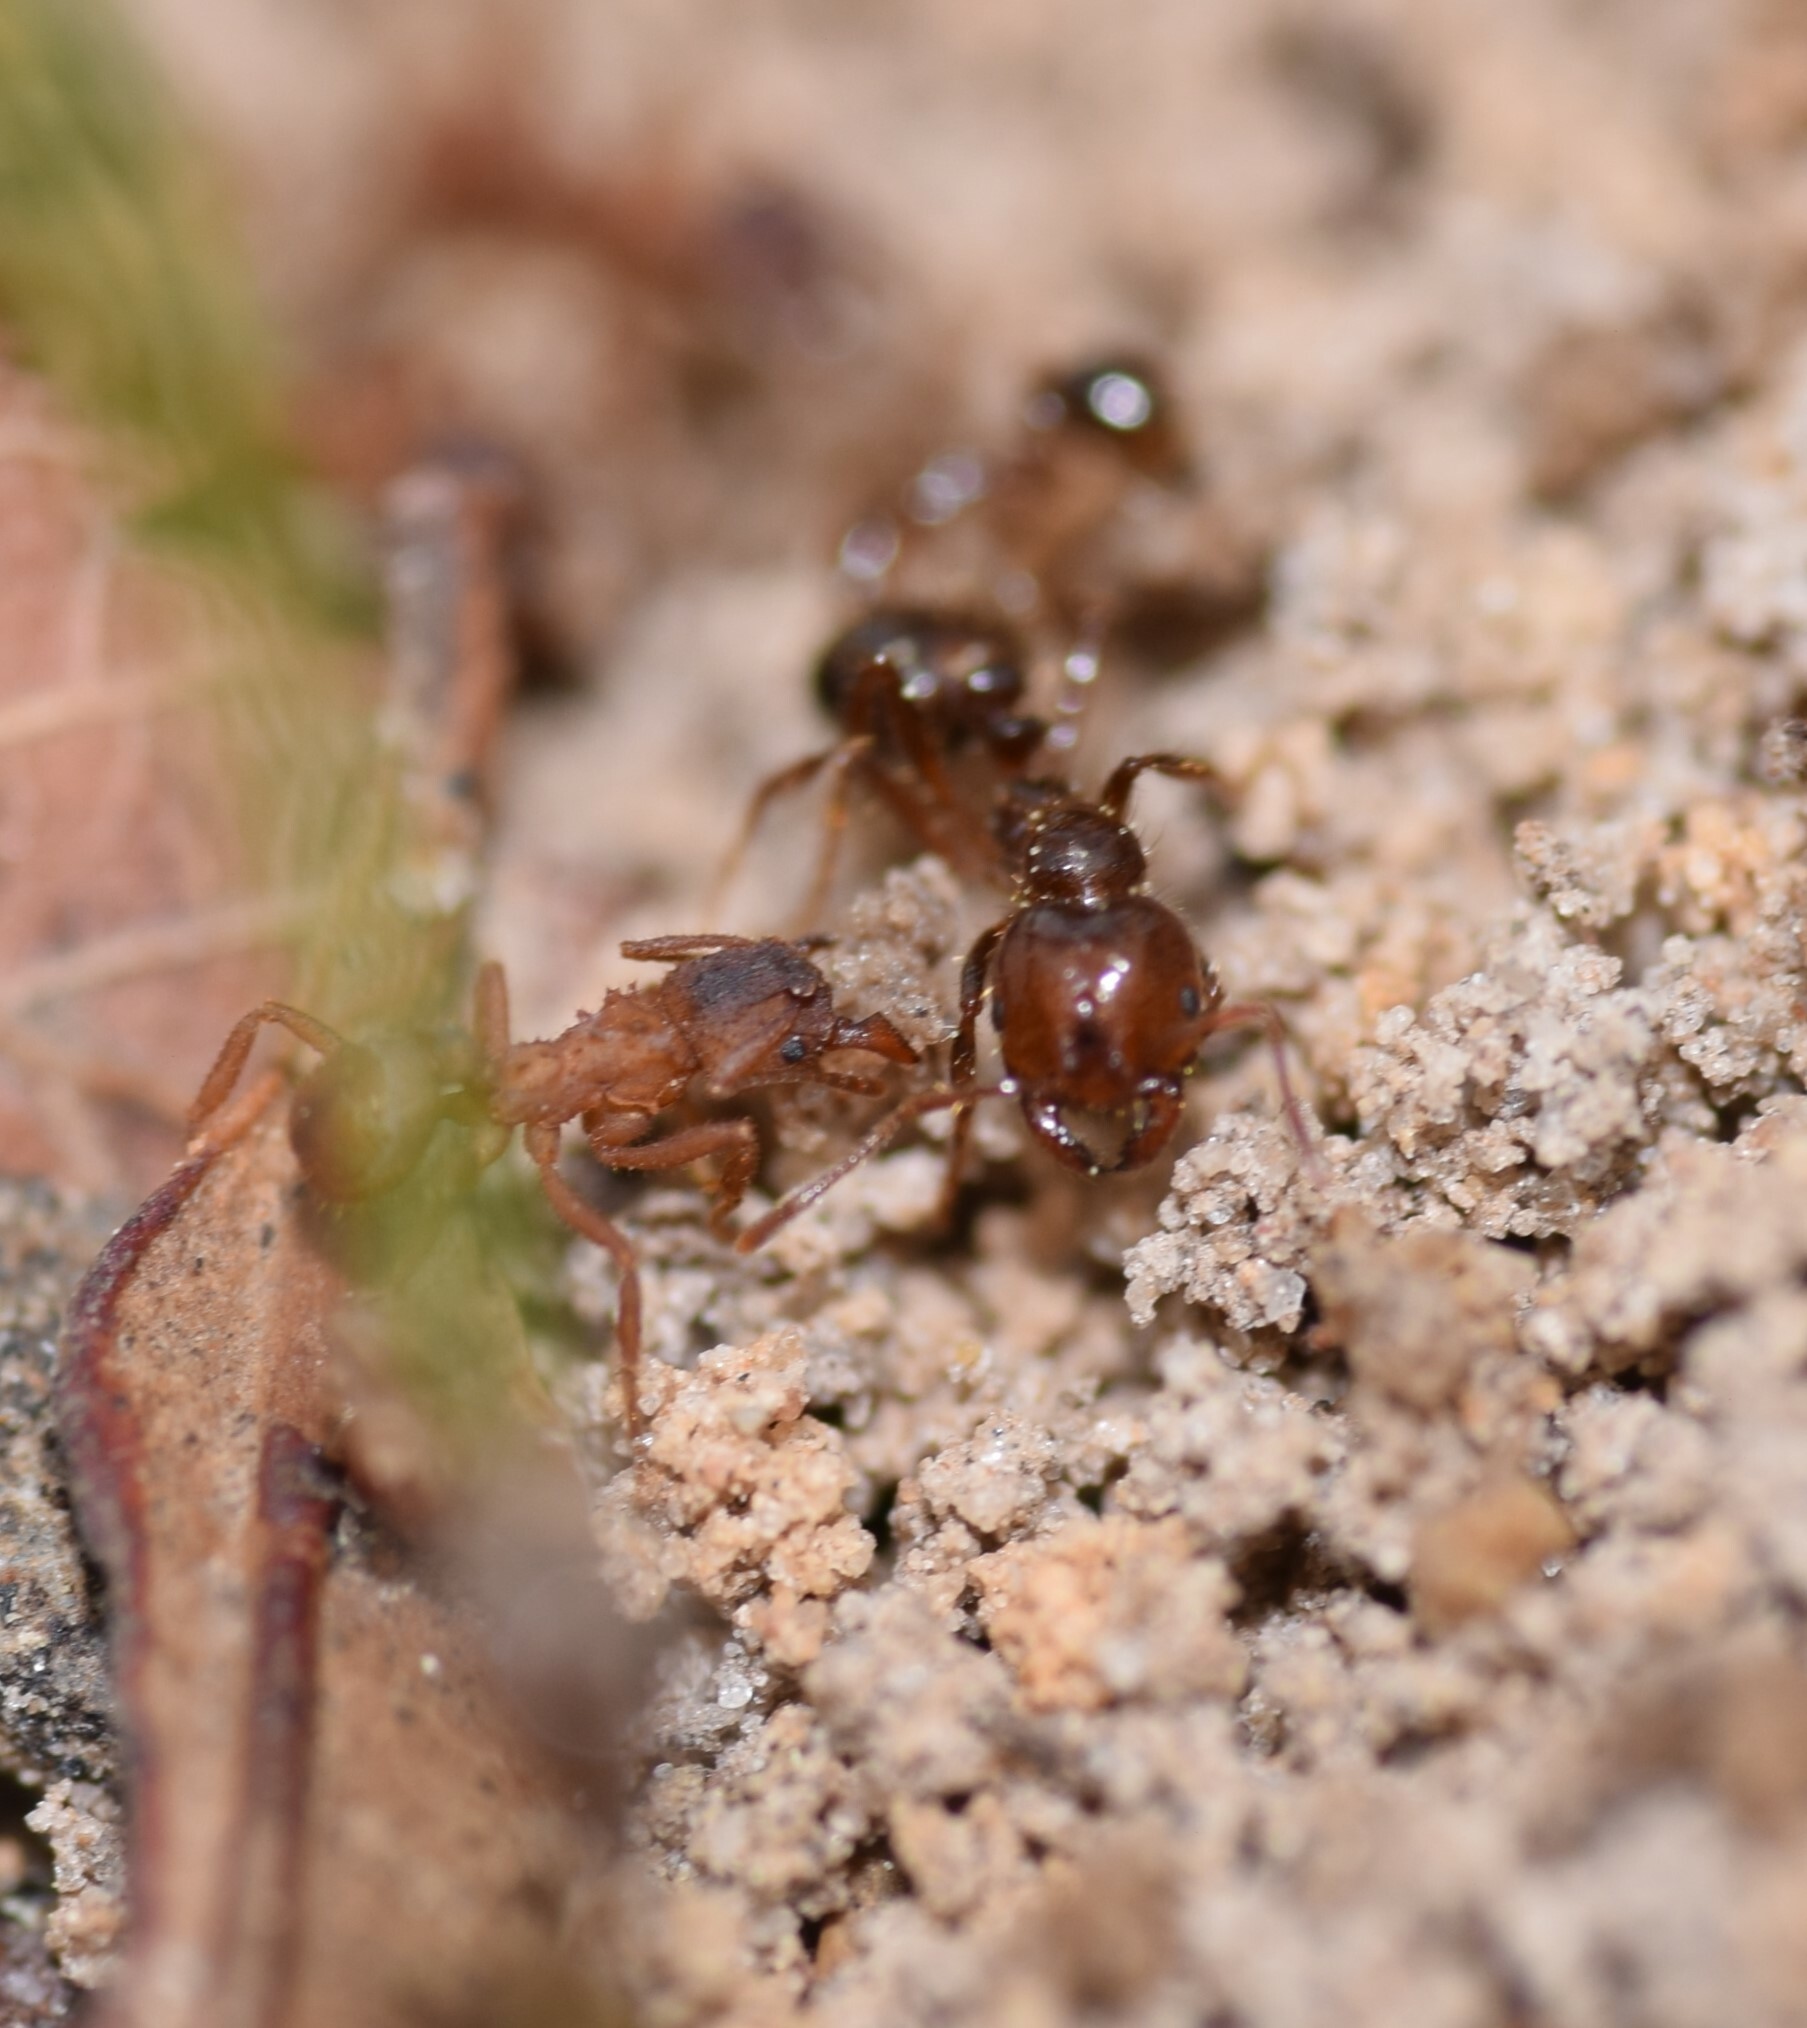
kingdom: Animalia
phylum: Arthropoda
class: Insecta
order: Hymenoptera
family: Formicidae
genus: Solenopsis
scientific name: Solenopsis invicta
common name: Red imported fire ant
